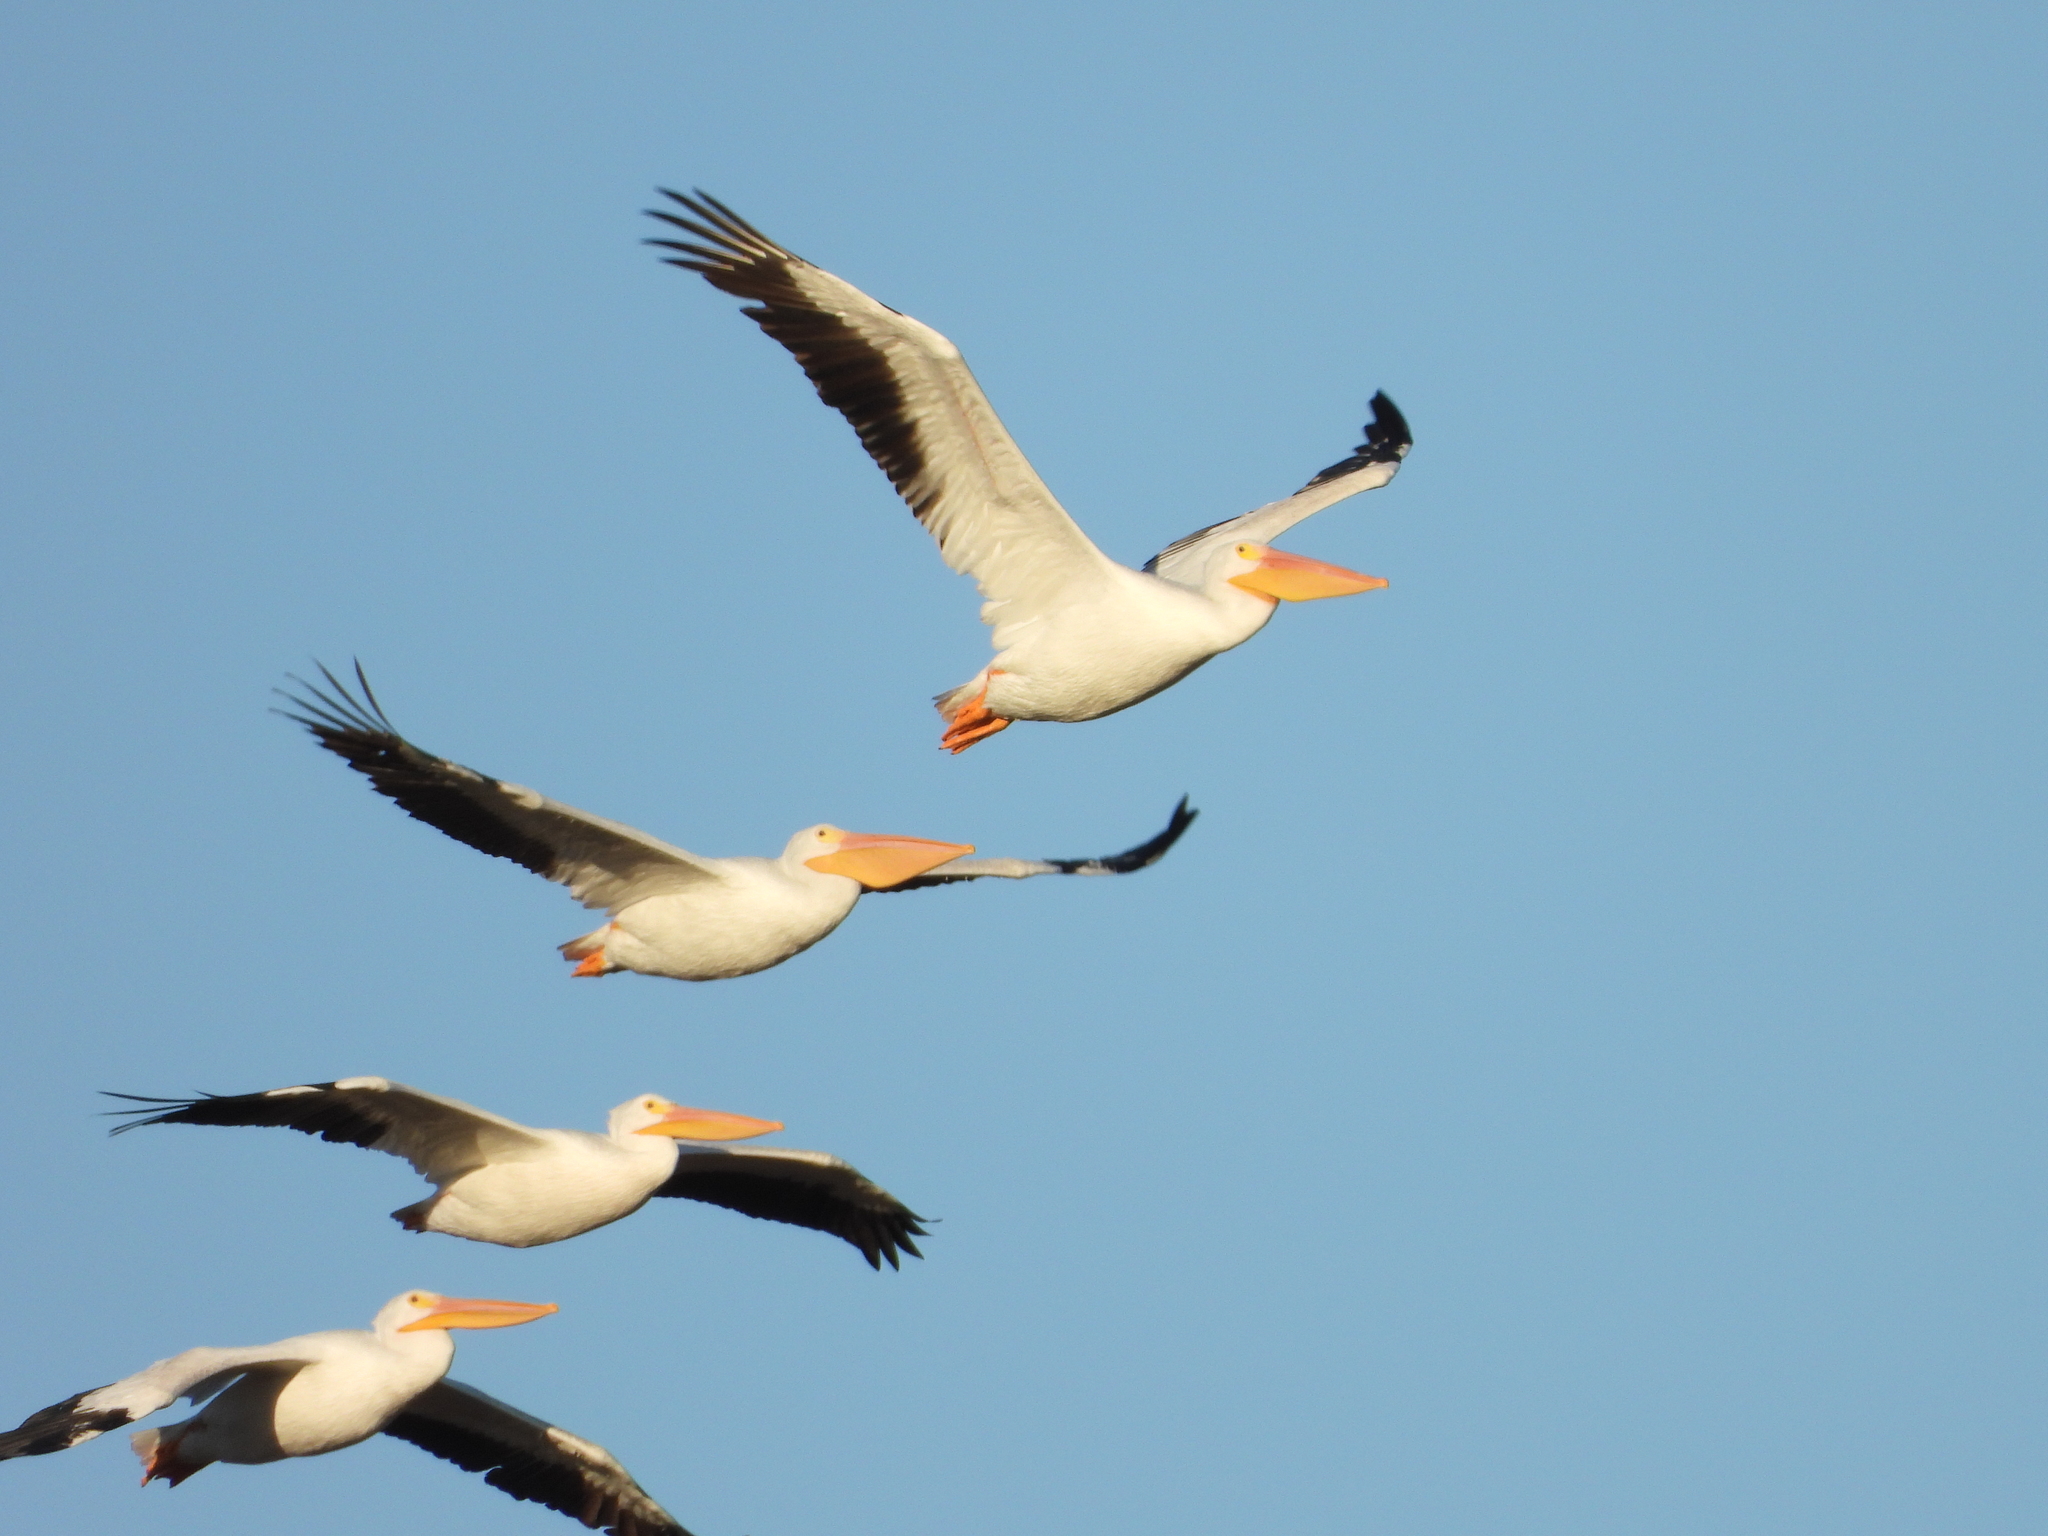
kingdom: Animalia
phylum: Chordata
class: Aves
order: Pelecaniformes
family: Pelecanidae
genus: Pelecanus
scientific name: Pelecanus erythrorhynchos
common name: American white pelican
